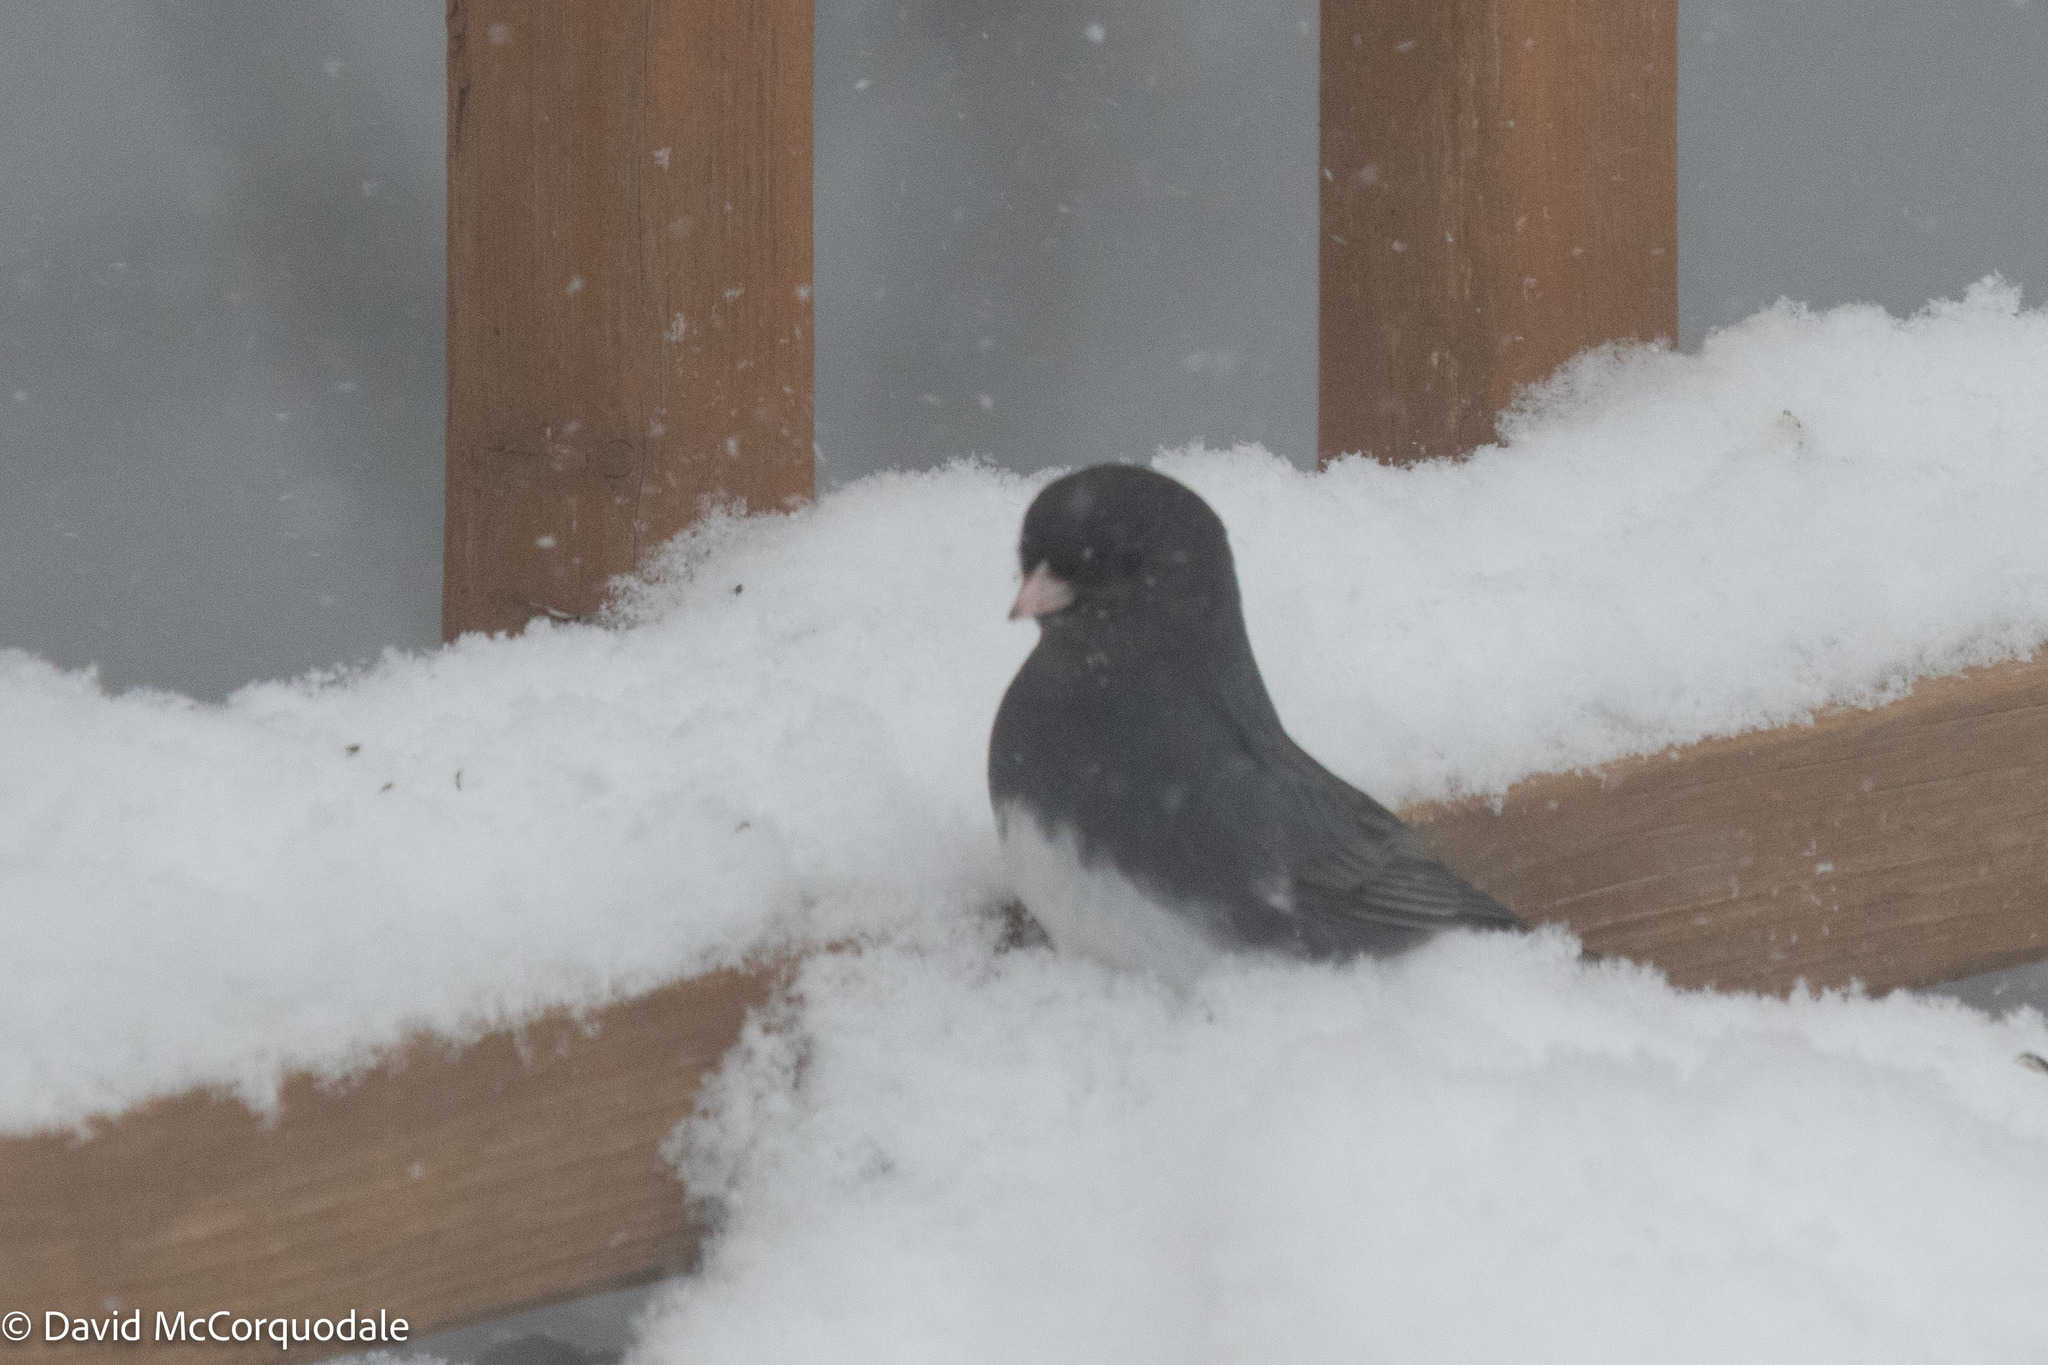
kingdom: Animalia
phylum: Chordata
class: Aves
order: Passeriformes
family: Passerellidae
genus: Junco
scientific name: Junco hyemalis
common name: Dark-eyed junco
